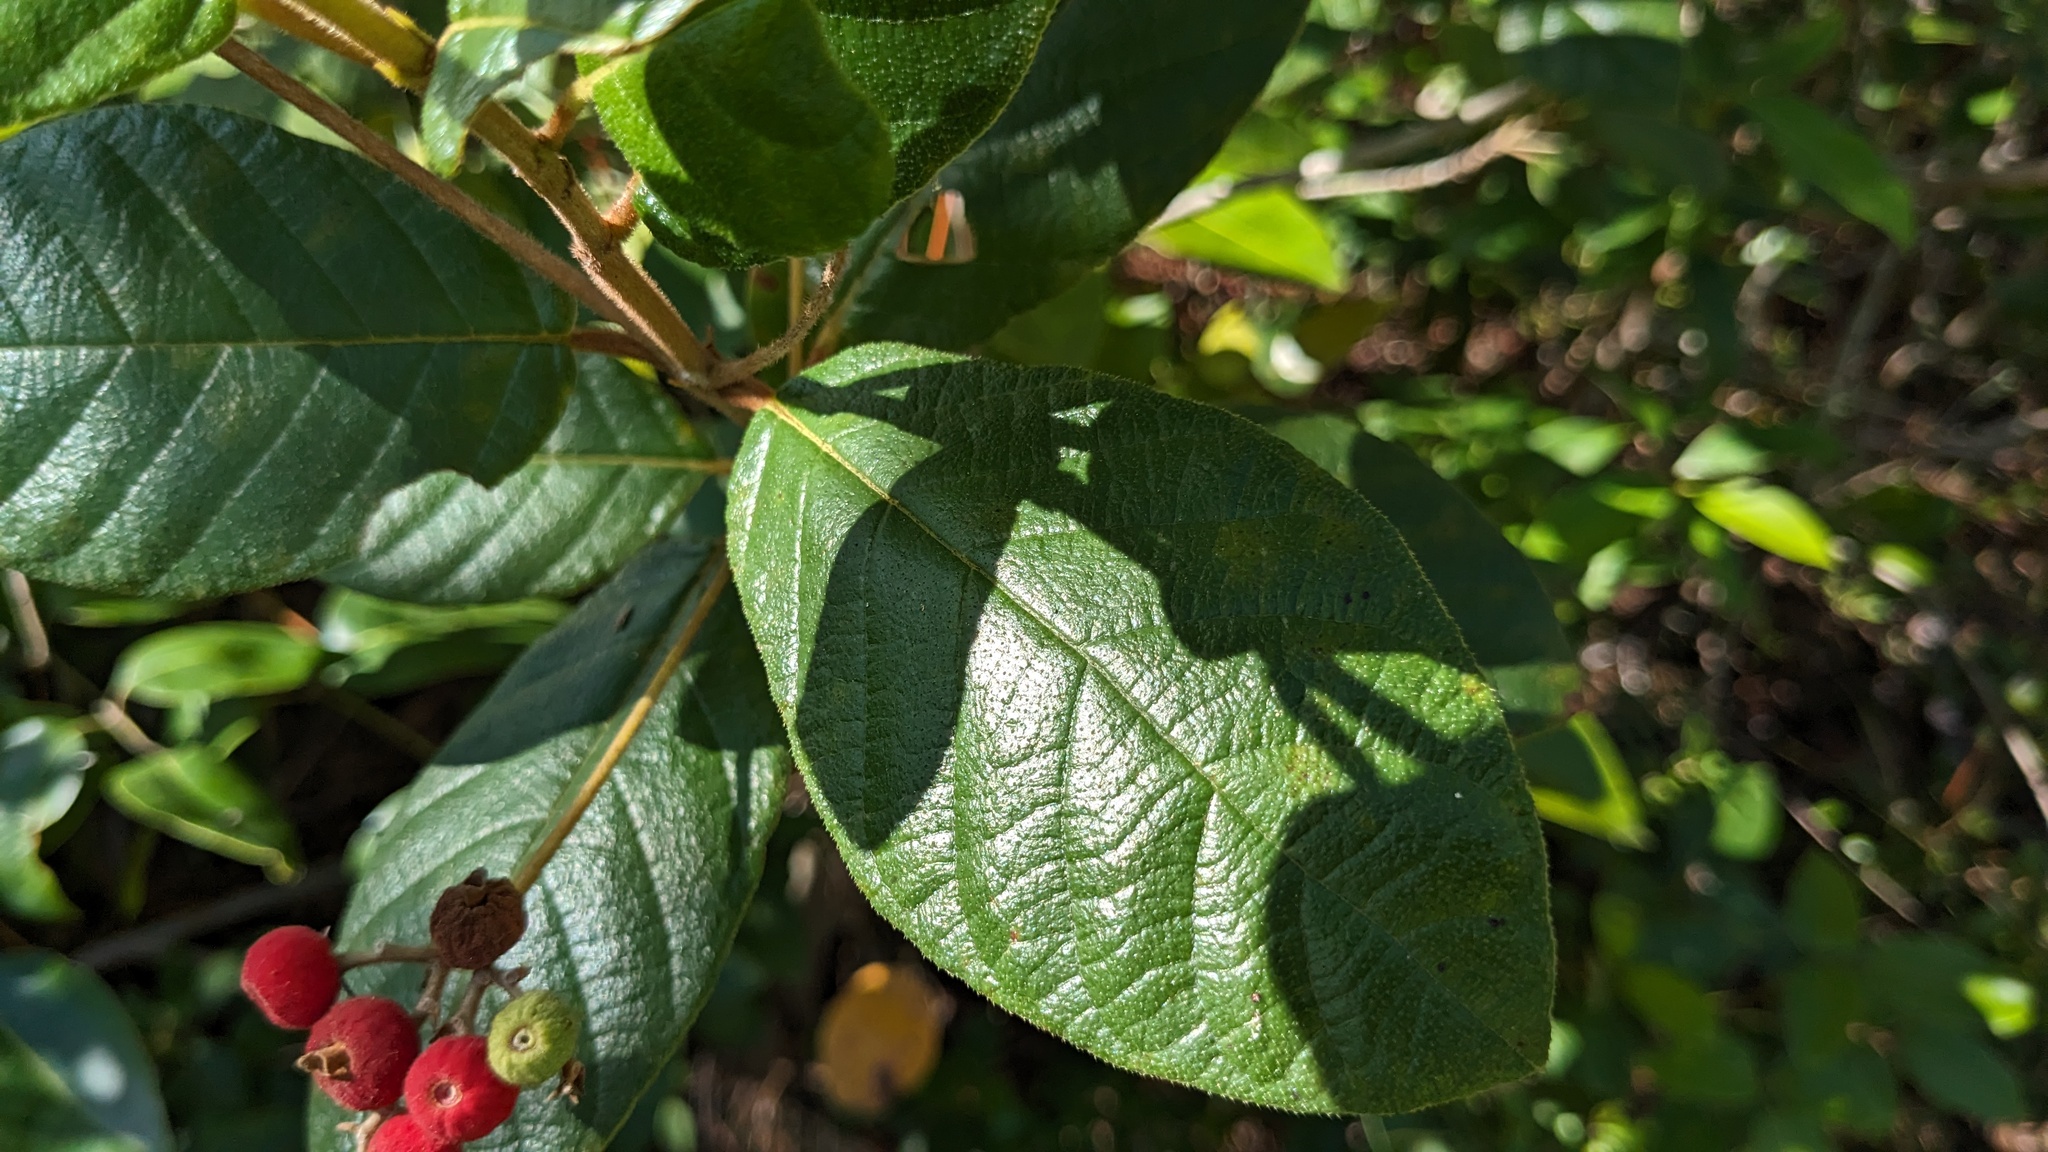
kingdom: Plantae
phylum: Tracheophyta
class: Magnoliopsida
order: Gentianales
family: Rubiaceae
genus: Guettarda
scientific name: Guettarda scabra
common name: Pigeon bay
